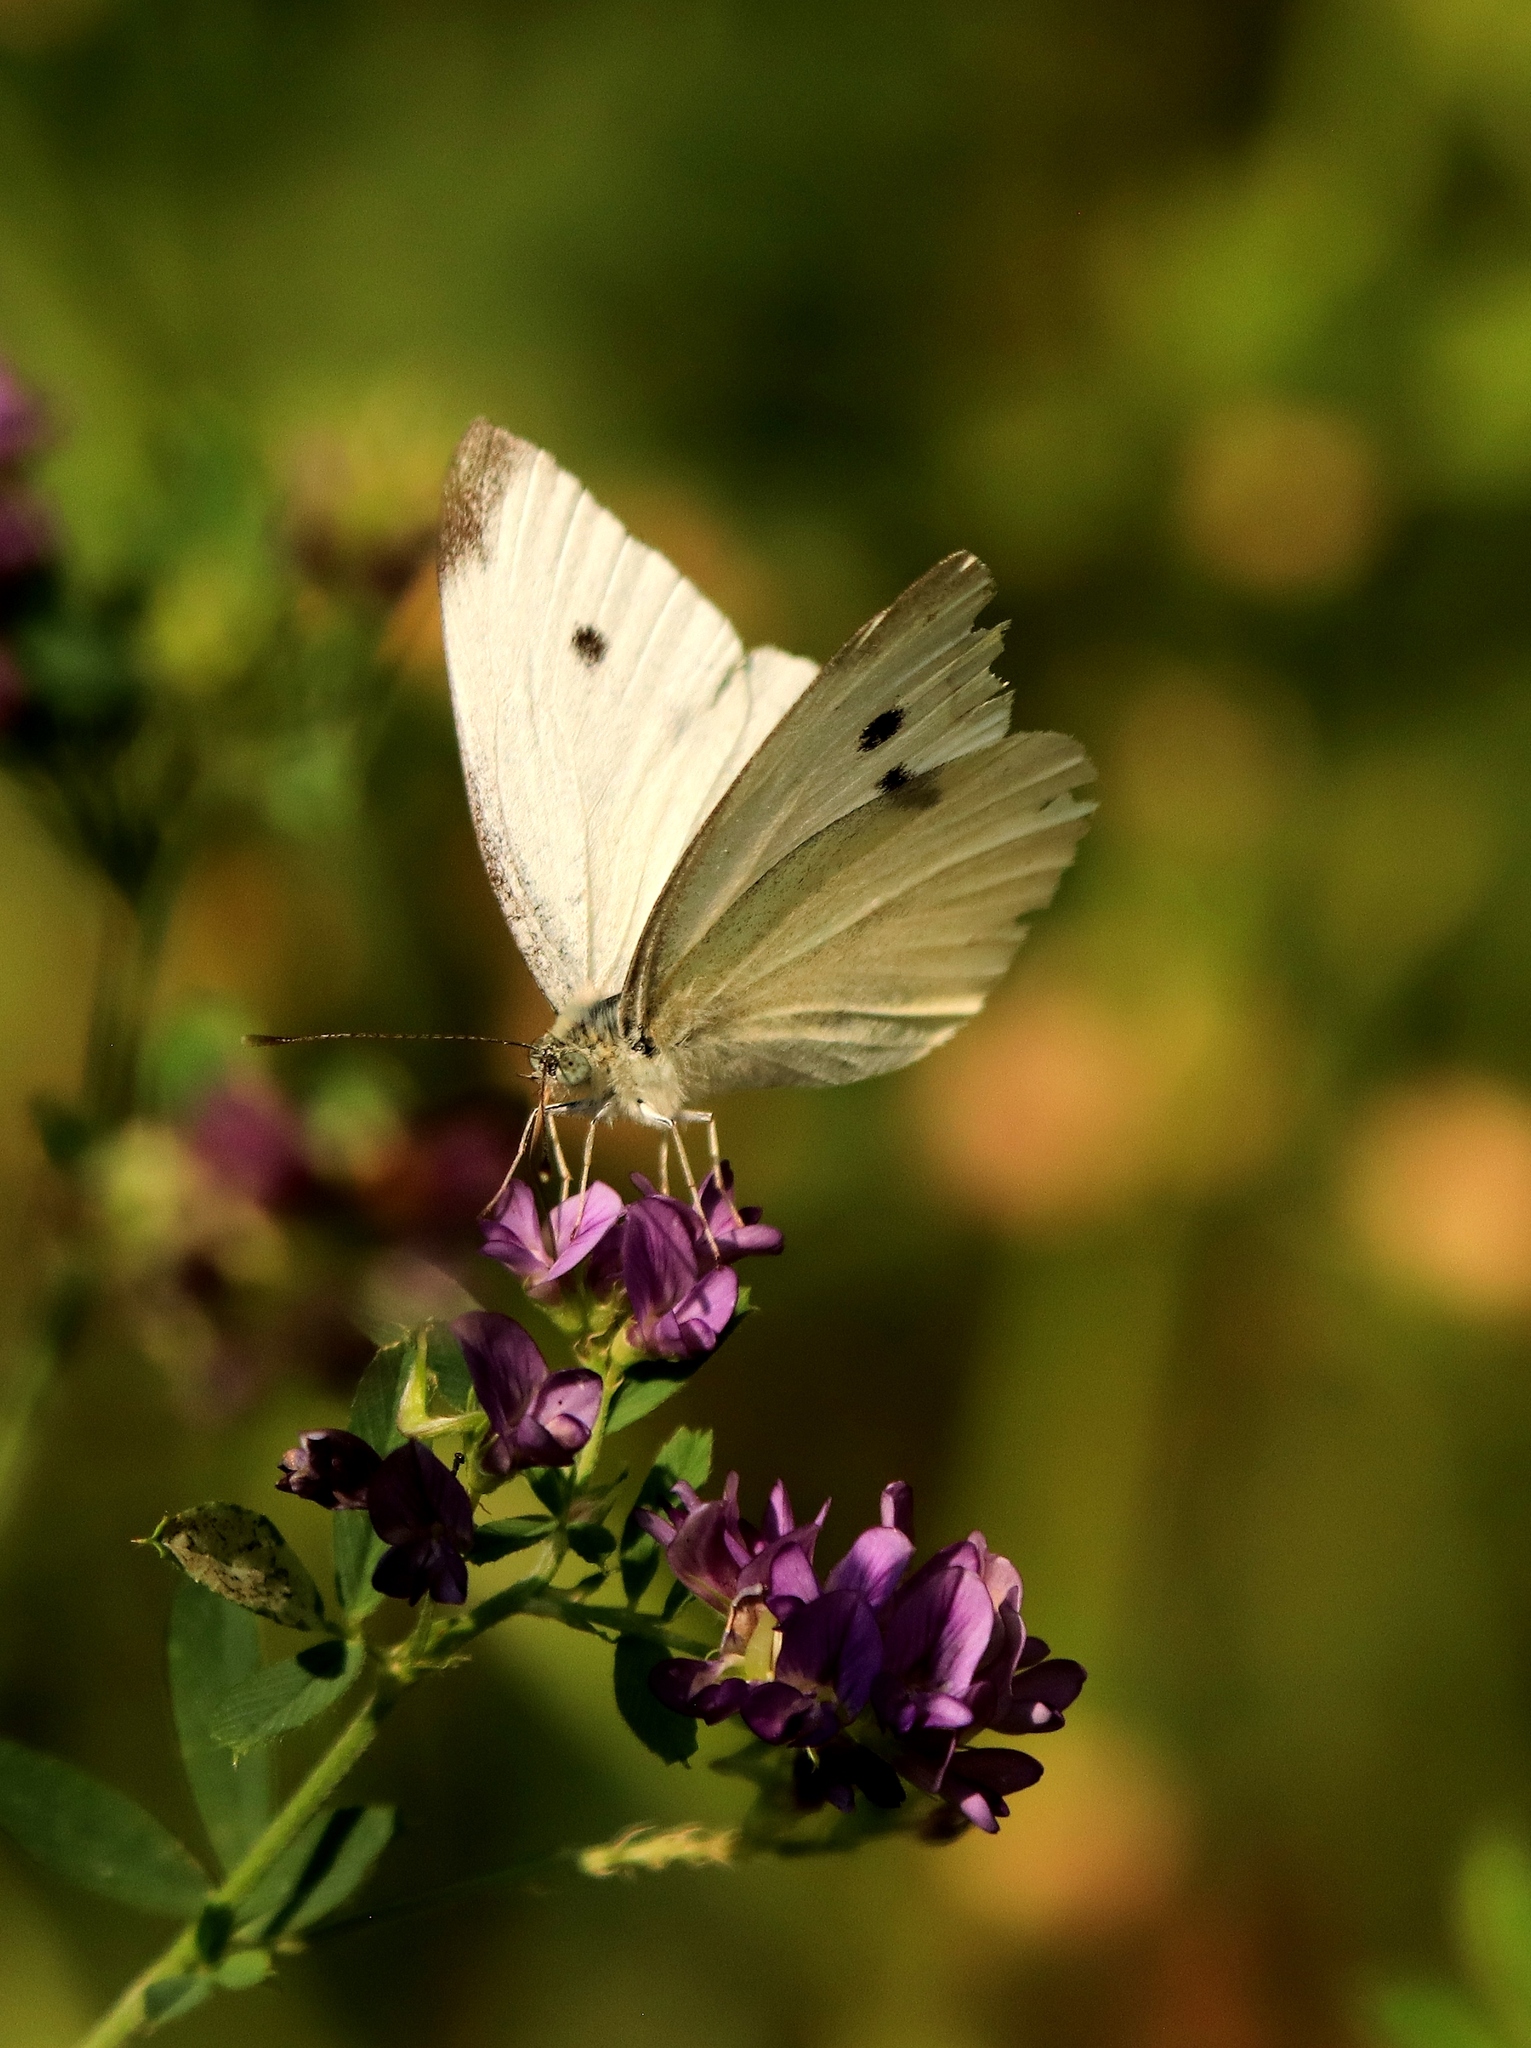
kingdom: Animalia
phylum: Arthropoda
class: Insecta
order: Lepidoptera
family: Pieridae
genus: Pieris
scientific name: Pieris rapae
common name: Small white
